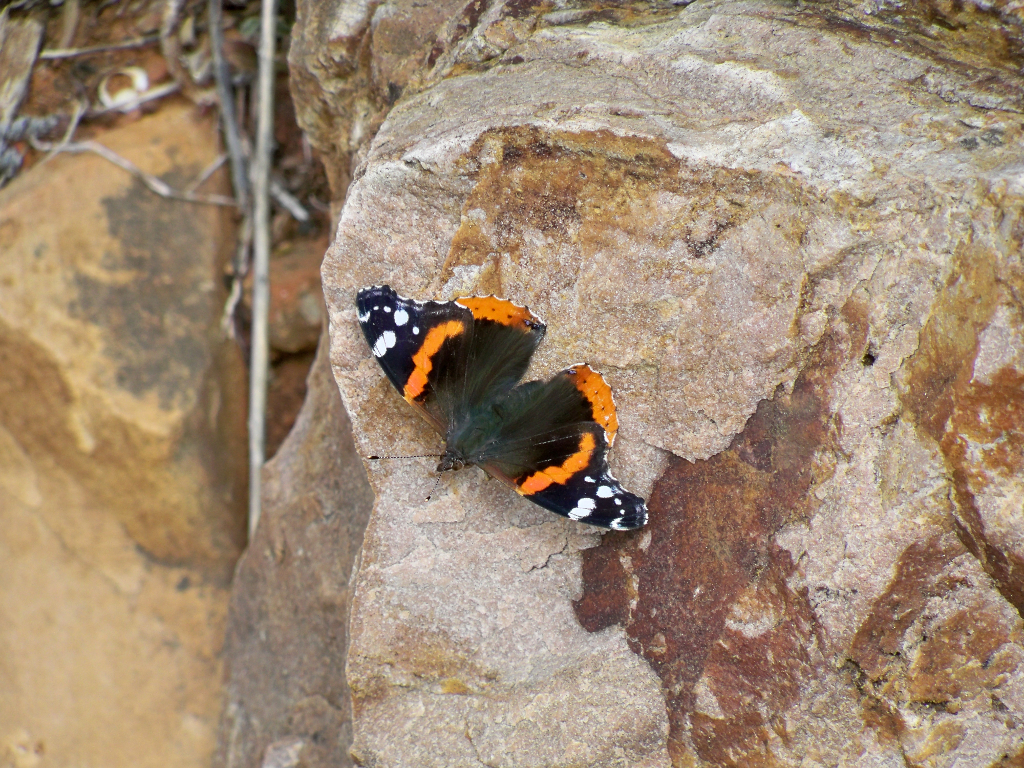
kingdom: Animalia
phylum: Arthropoda
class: Insecta
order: Lepidoptera
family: Nymphalidae
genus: Vanessa
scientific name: Vanessa atalanta
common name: Red admiral
